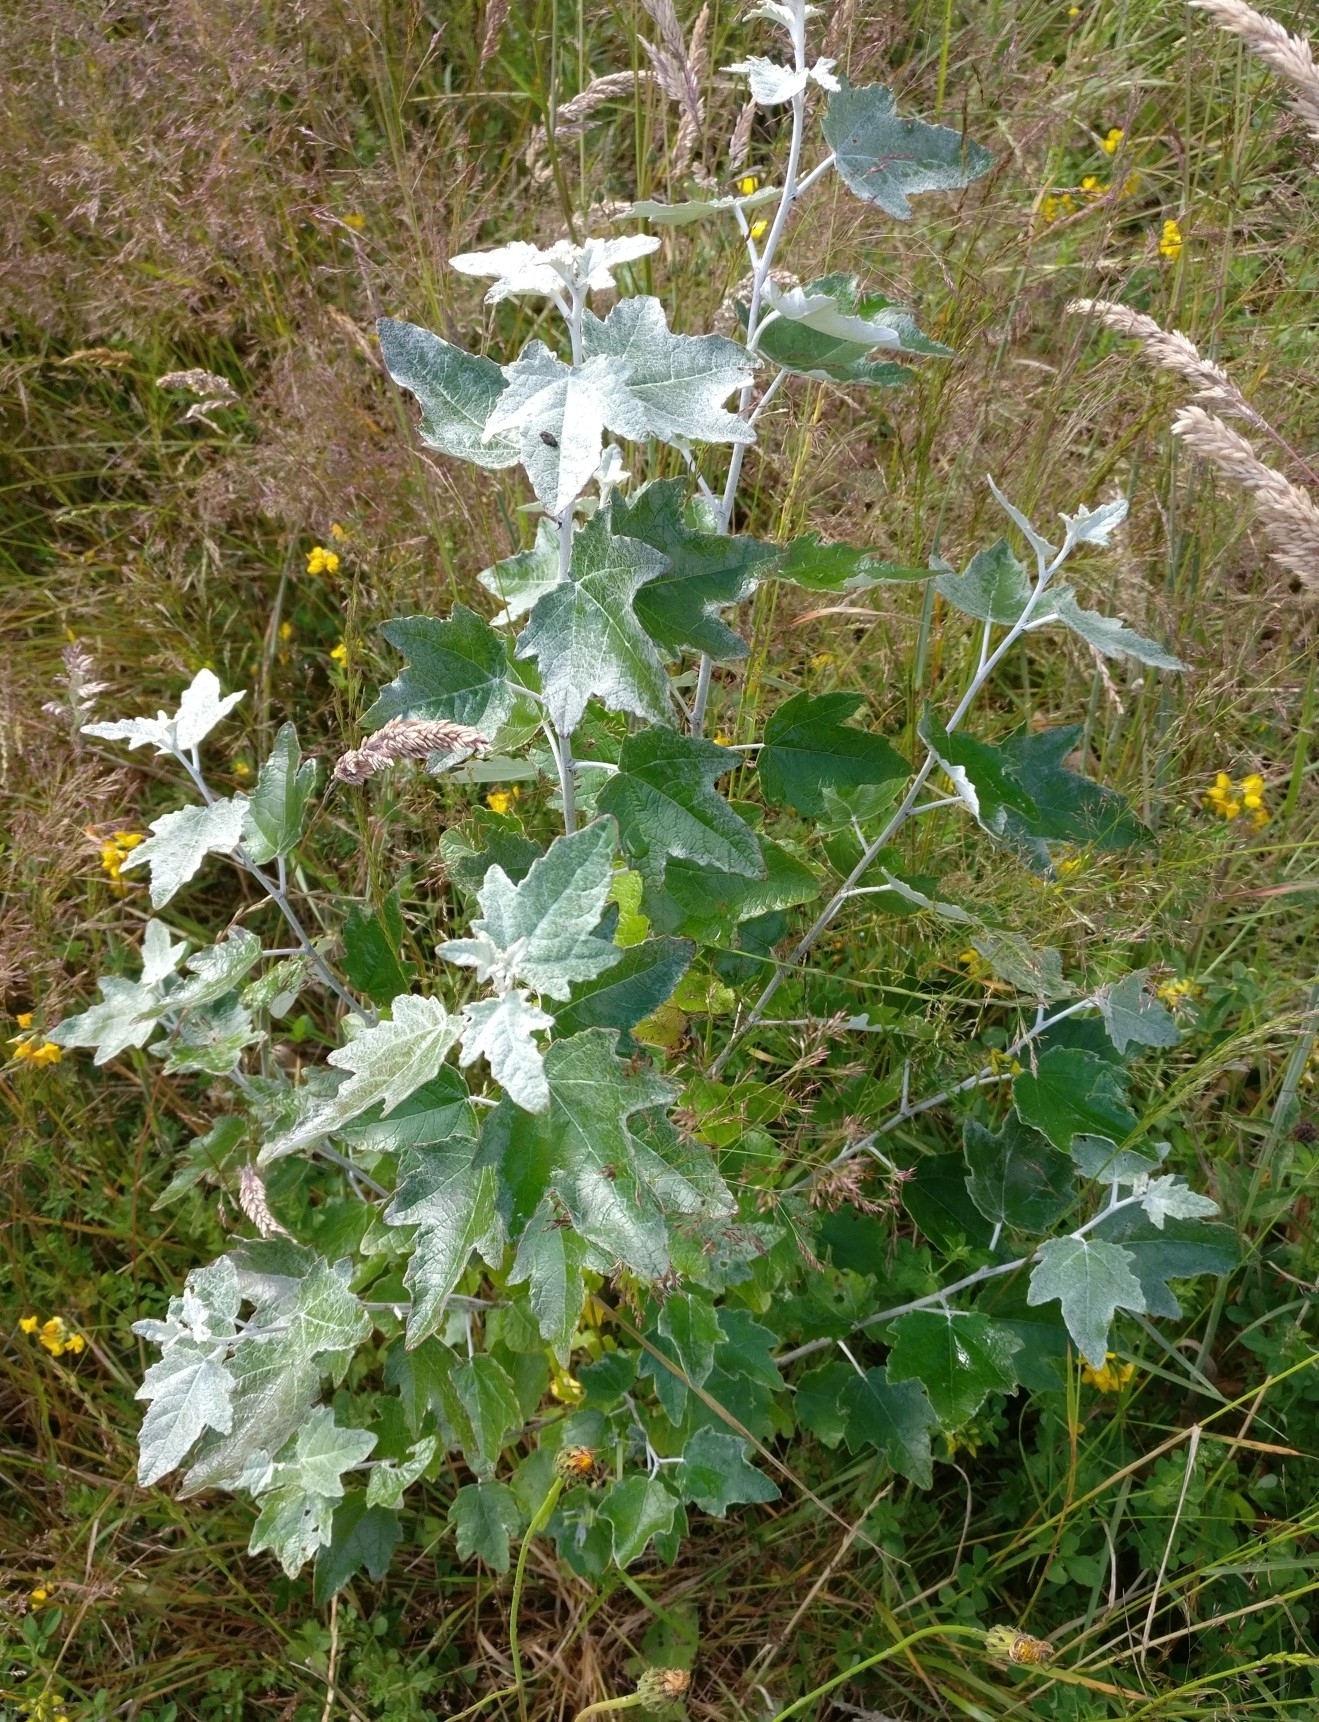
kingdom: Plantae
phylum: Tracheophyta
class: Magnoliopsida
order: Malpighiales
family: Salicaceae
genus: Populus
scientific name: Populus alba
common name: White poplar
